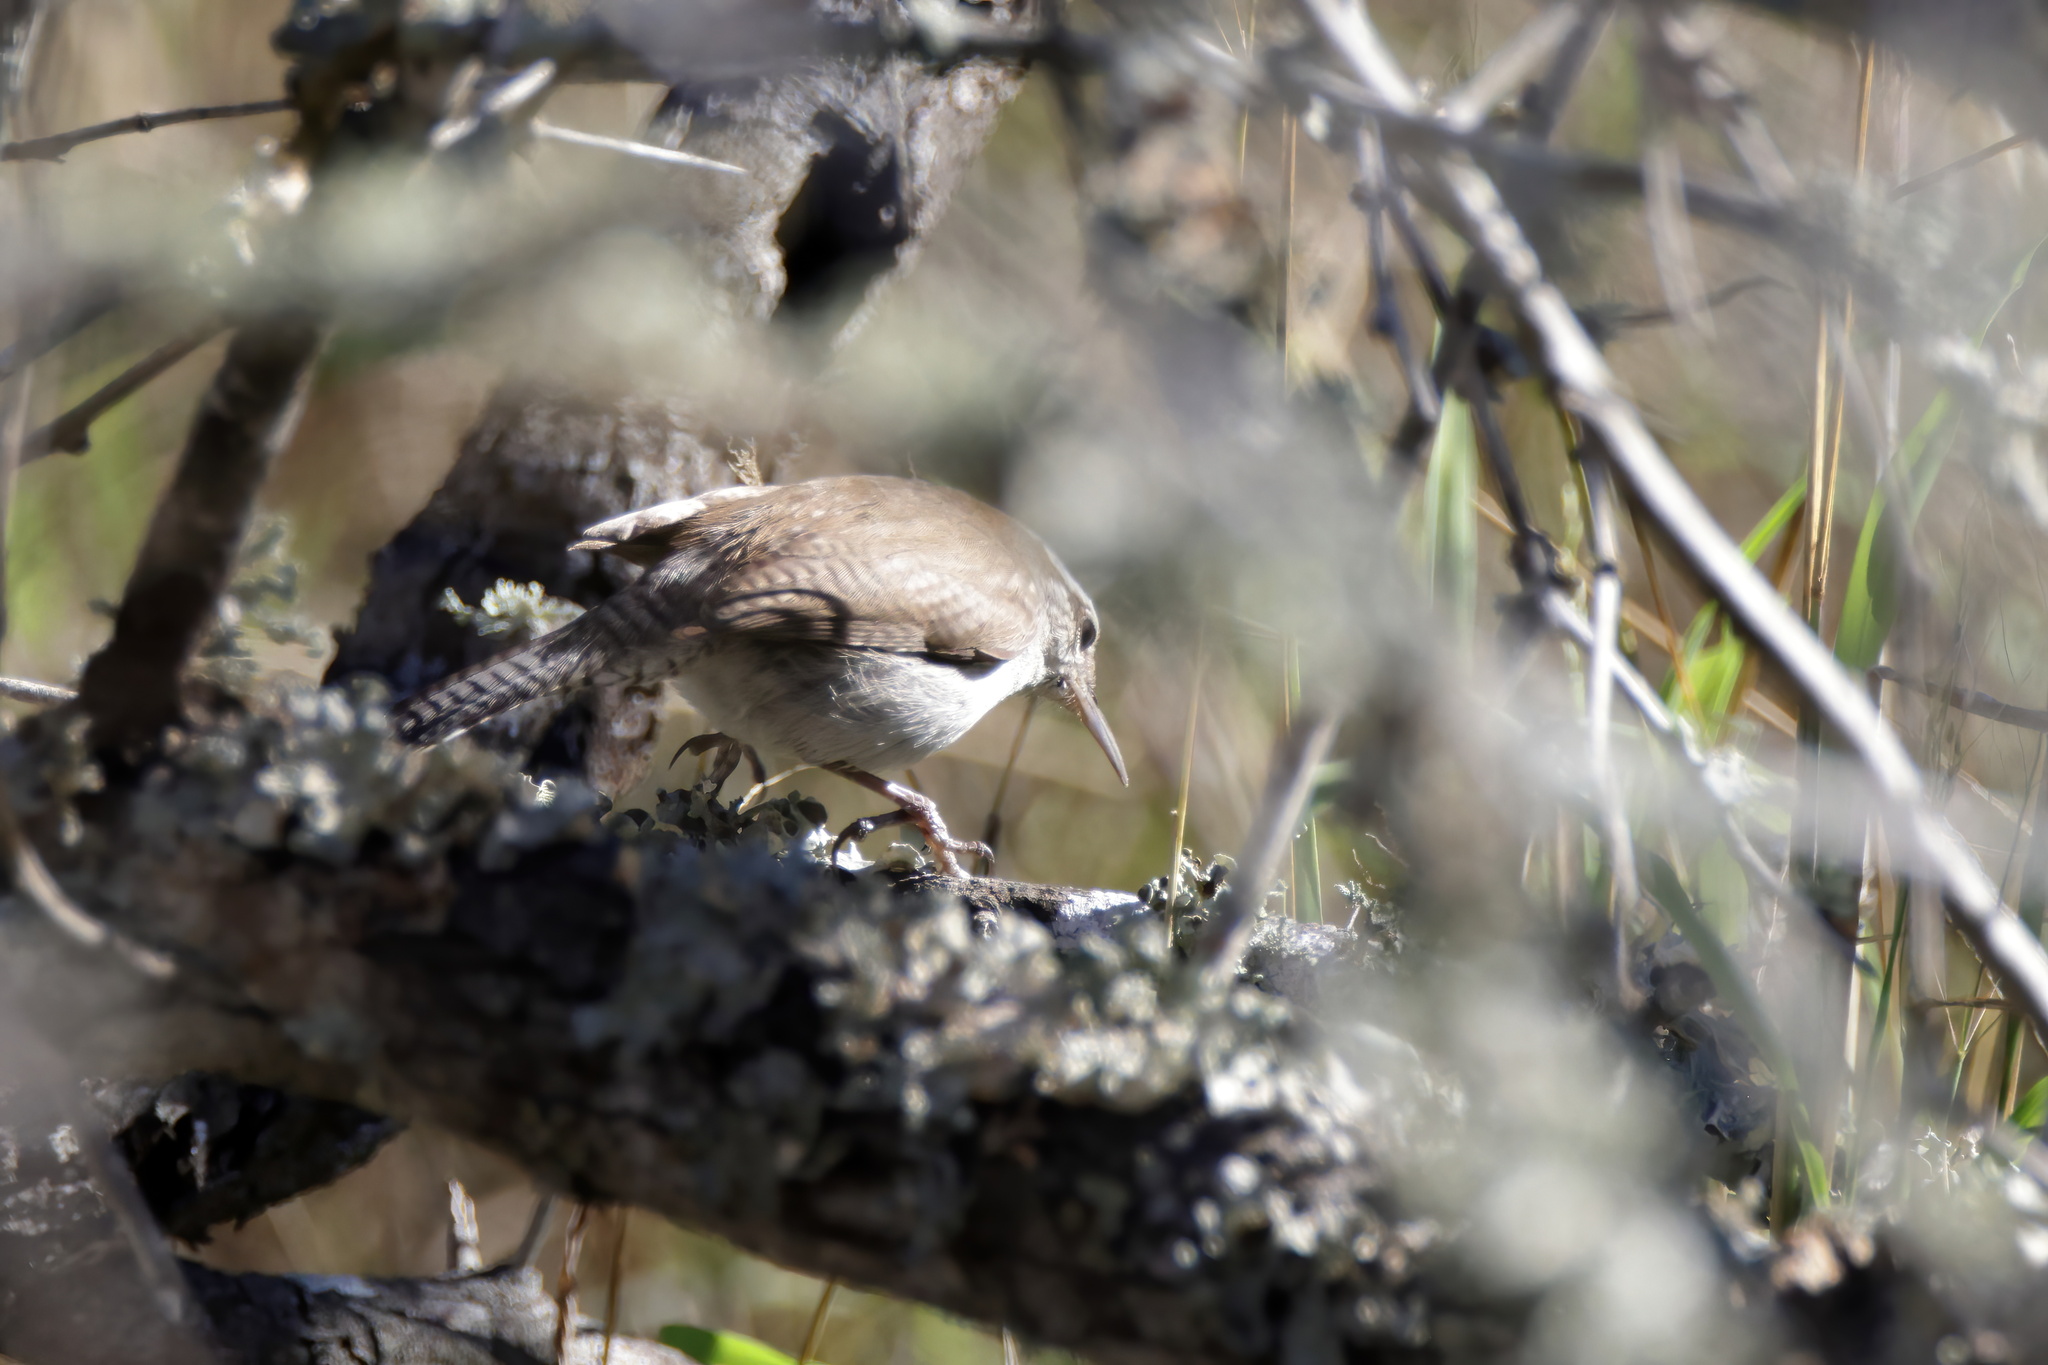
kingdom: Animalia
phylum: Chordata
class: Aves
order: Passeriformes
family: Troglodytidae
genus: Thryomanes
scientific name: Thryomanes bewickii
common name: Bewick's wren
